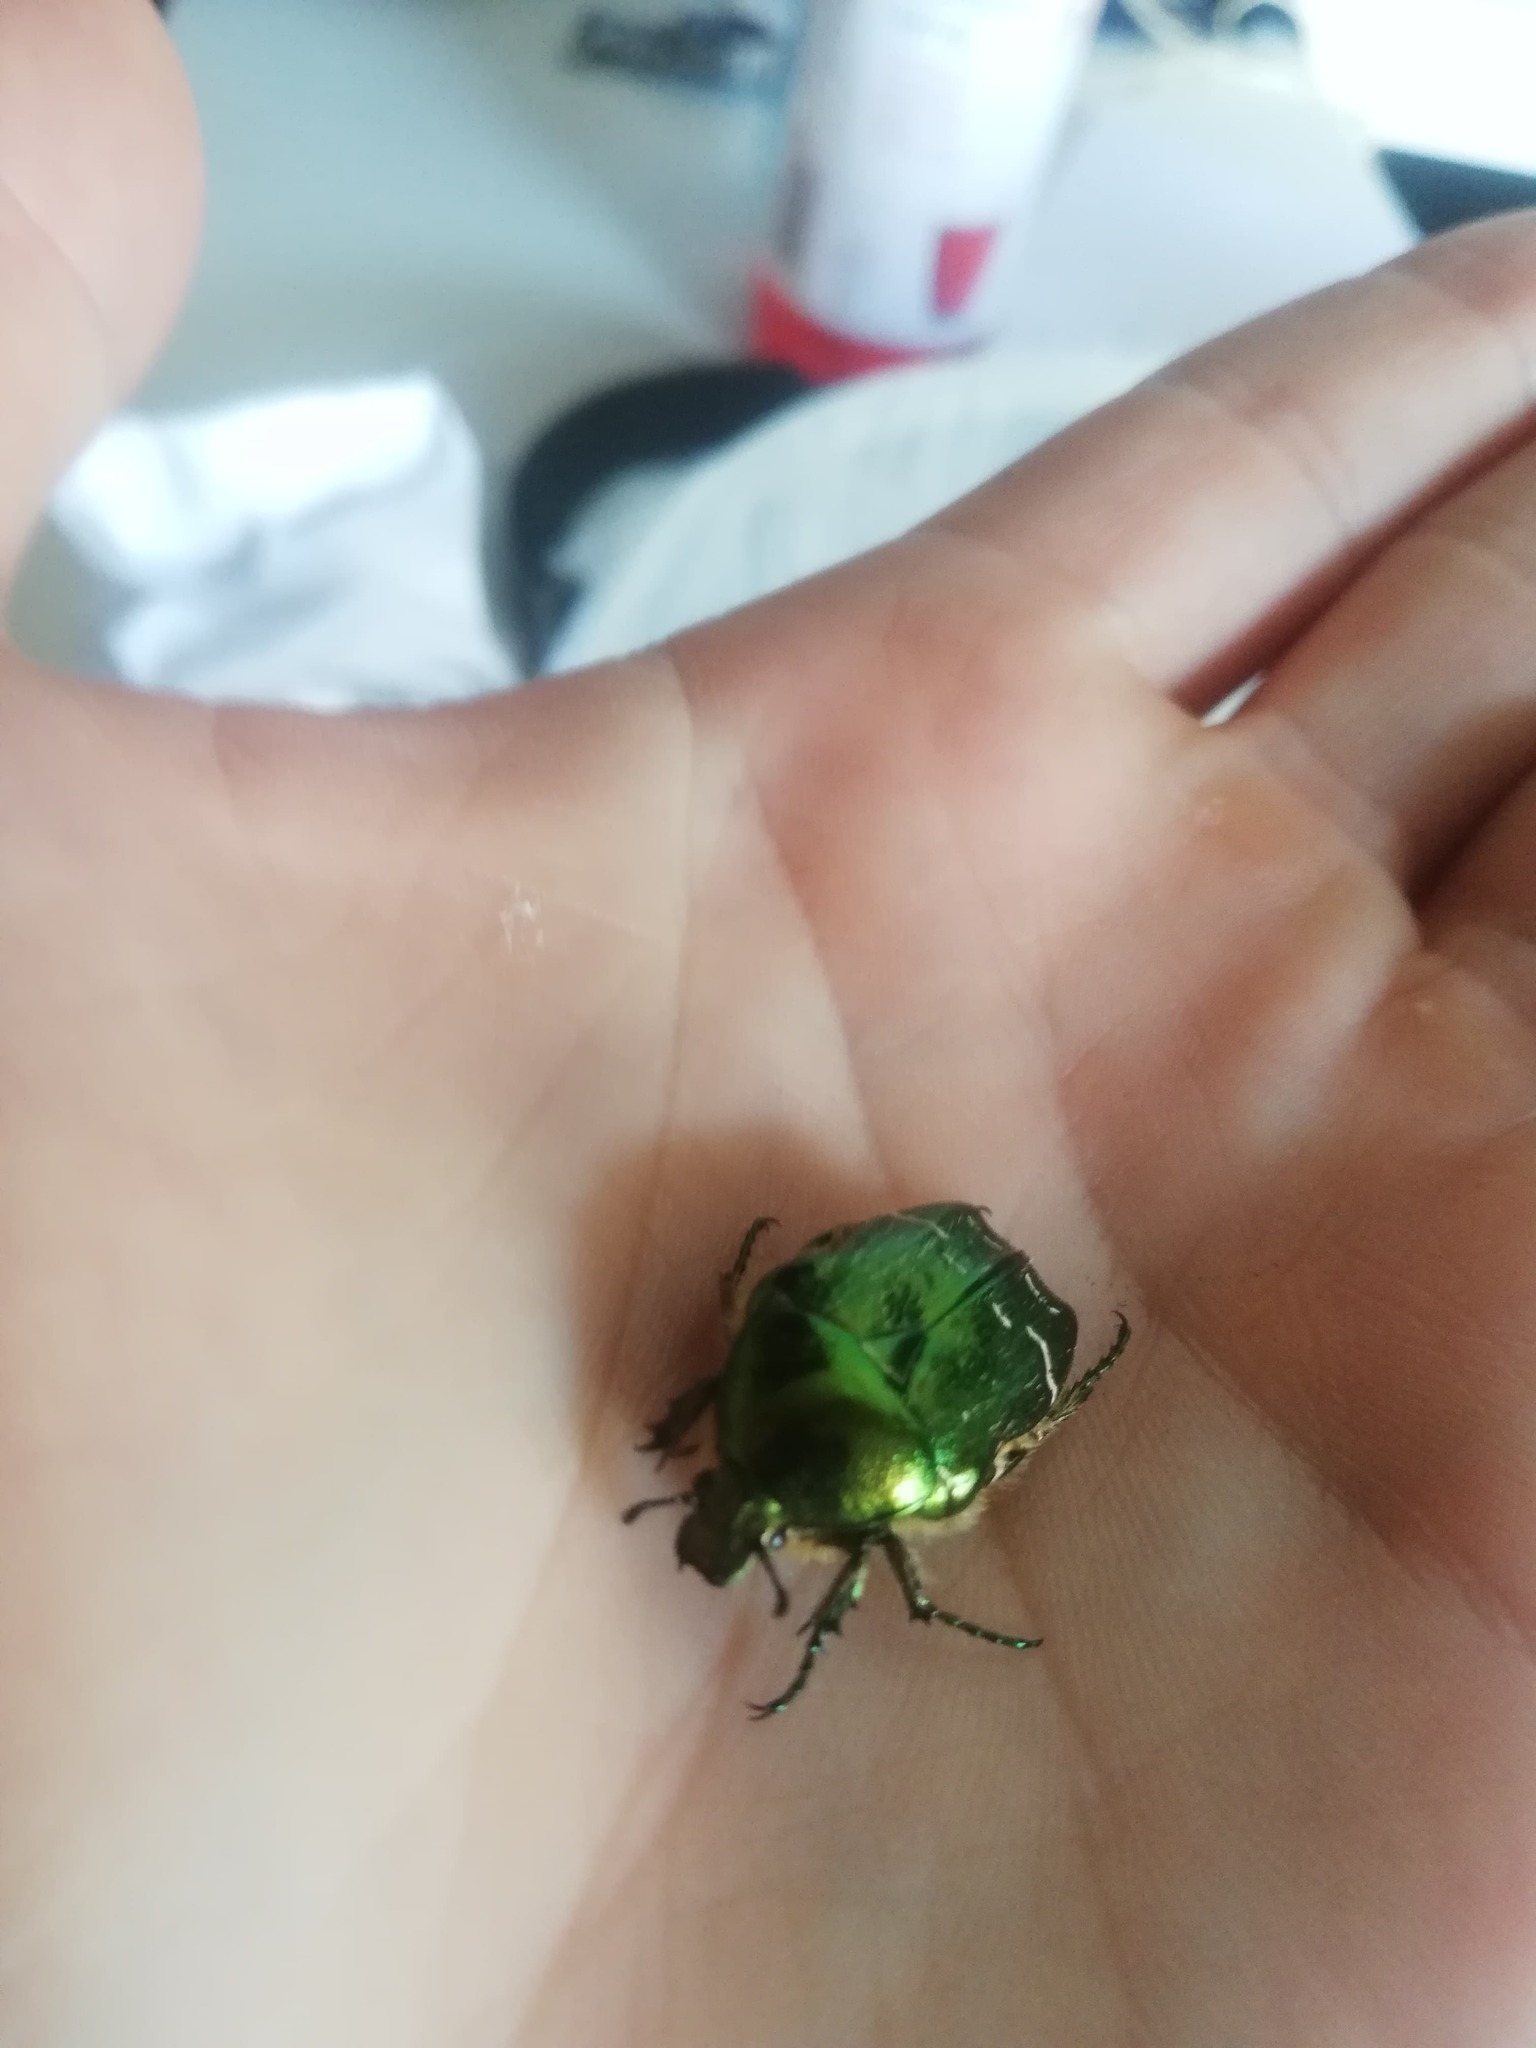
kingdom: Animalia
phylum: Arthropoda
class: Insecta
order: Coleoptera
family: Scarabaeidae
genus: Cetonia
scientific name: Cetonia aurata
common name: Rose chafer
